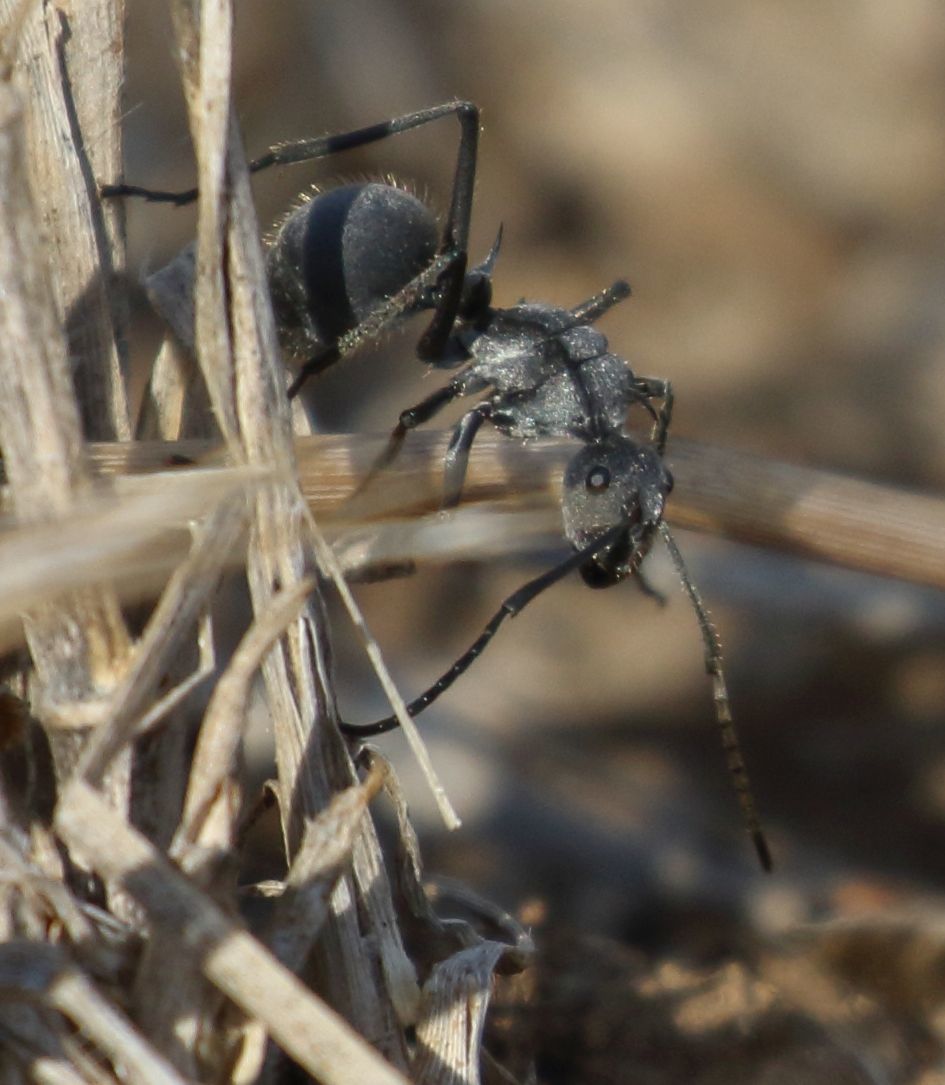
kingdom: Animalia
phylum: Arthropoda
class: Insecta
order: Hymenoptera
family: Formicidae
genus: Polyrhachis
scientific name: Polyrhachis schistacea
